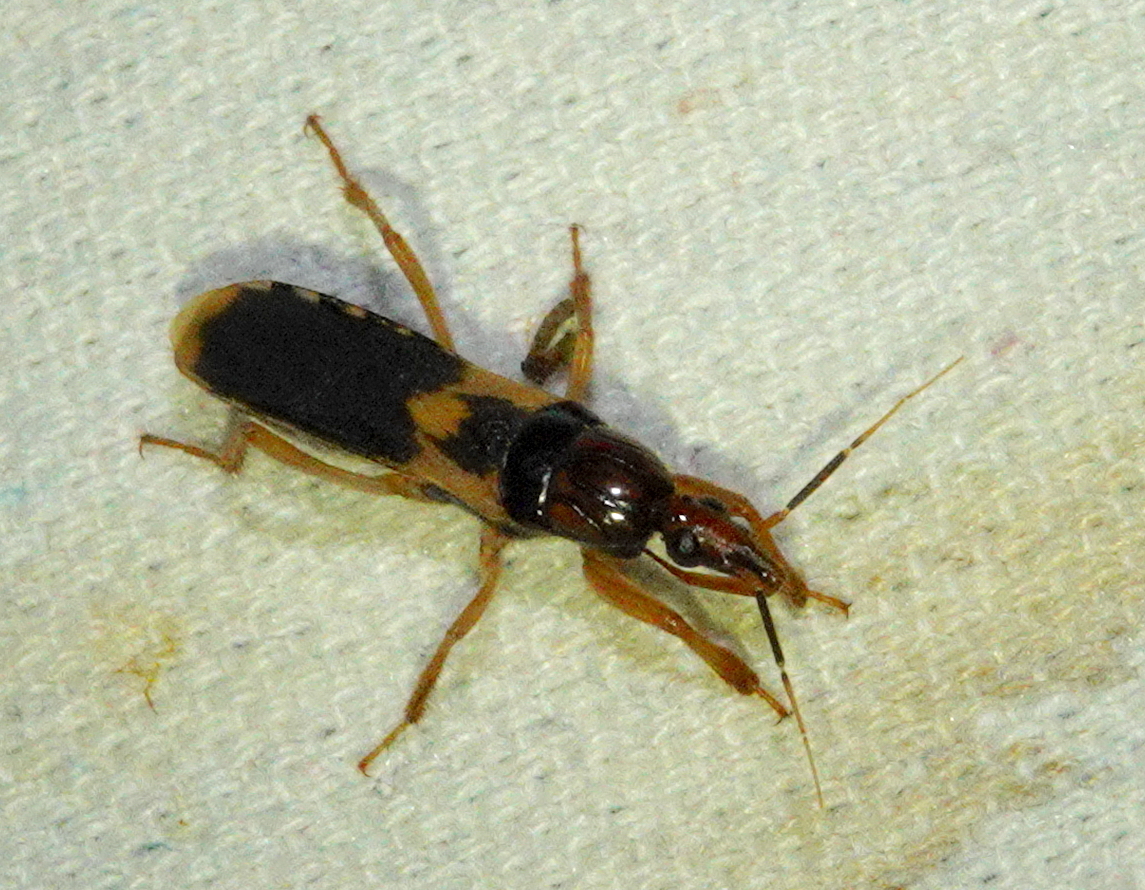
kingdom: Animalia
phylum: Arthropoda
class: Insecta
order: Hemiptera
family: Reduviidae
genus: Sirthenea
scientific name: Sirthenea flavipes
